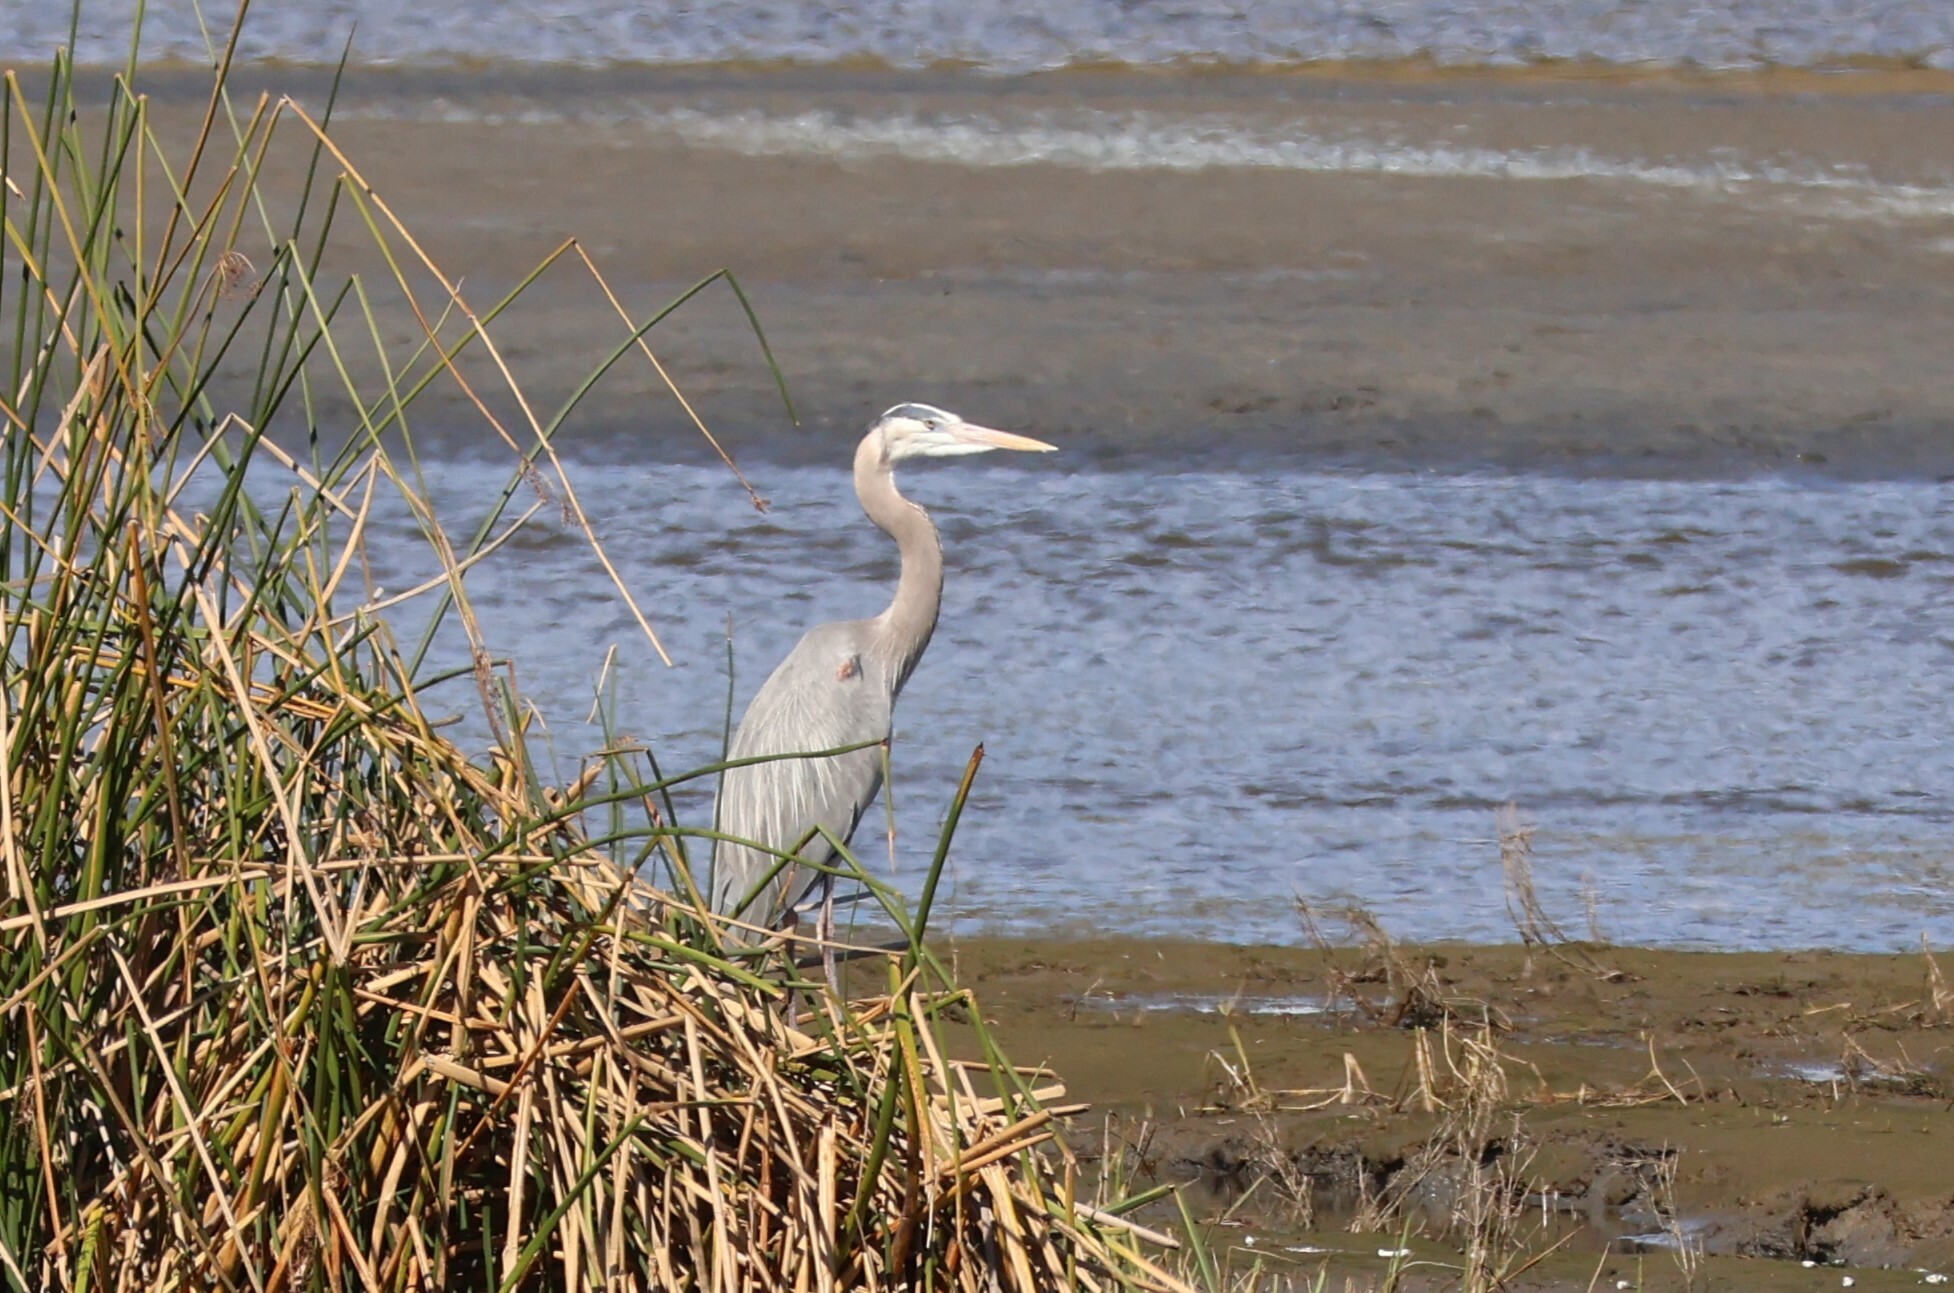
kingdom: Animalia
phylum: Chordata
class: Aves
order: Pelecaniformes
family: Ardeidae
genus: Ardea
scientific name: Ardea herodias
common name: Great blue heron
